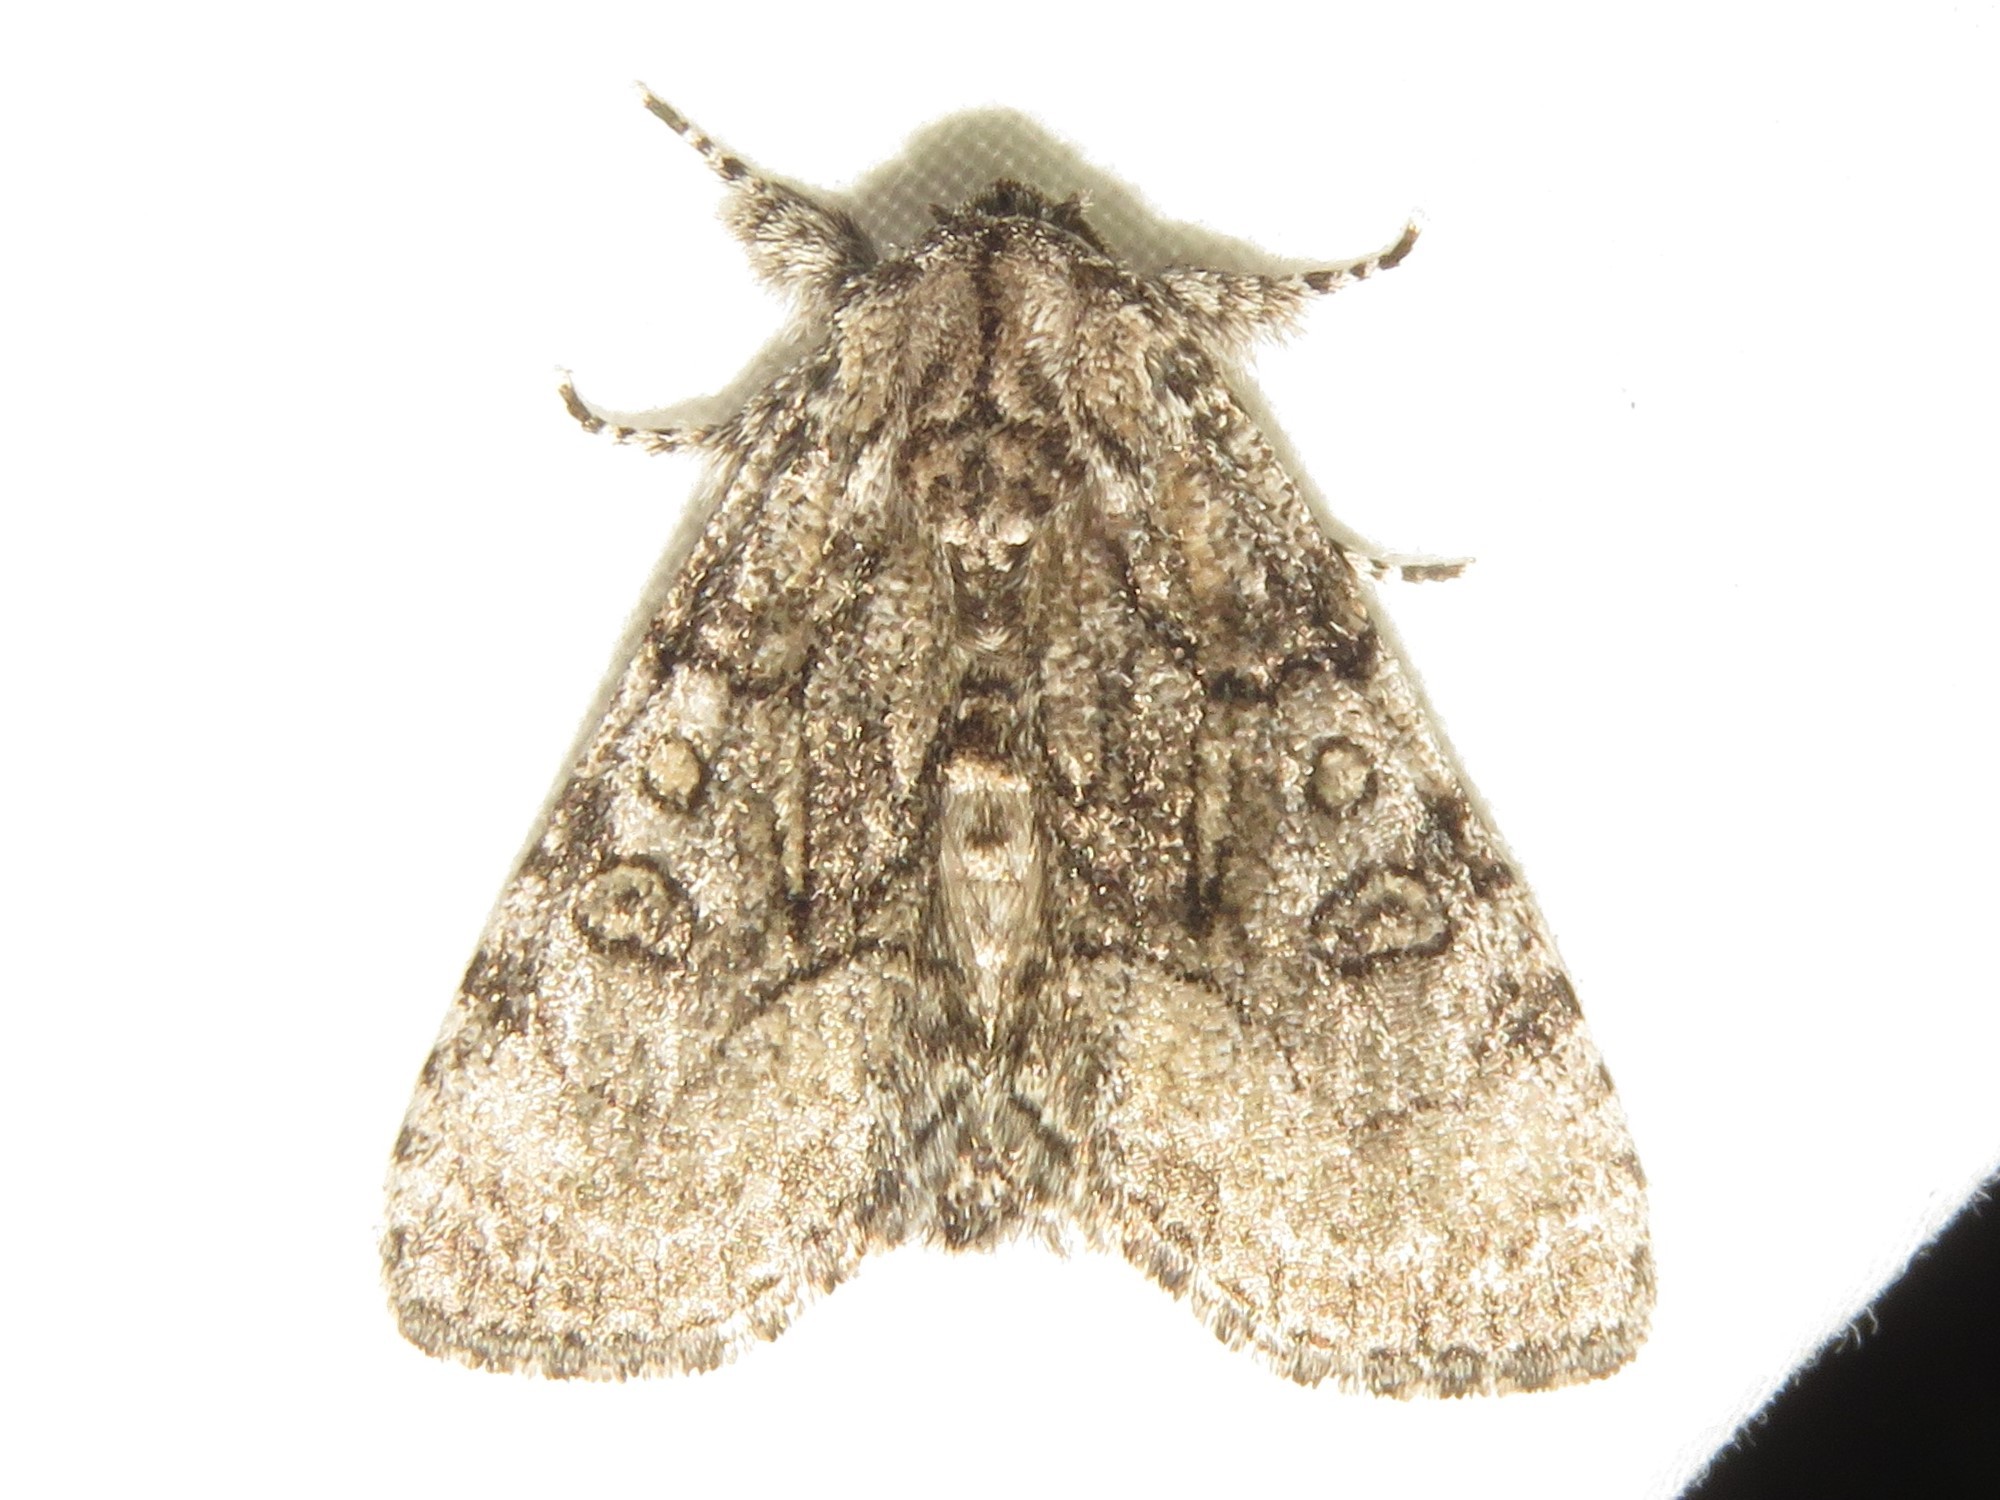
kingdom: Animalia
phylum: Arthropoda
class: Insecta
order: Lepidoptera
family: Noctuidae
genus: Raphia
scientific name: Raphia frater
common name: Brother
